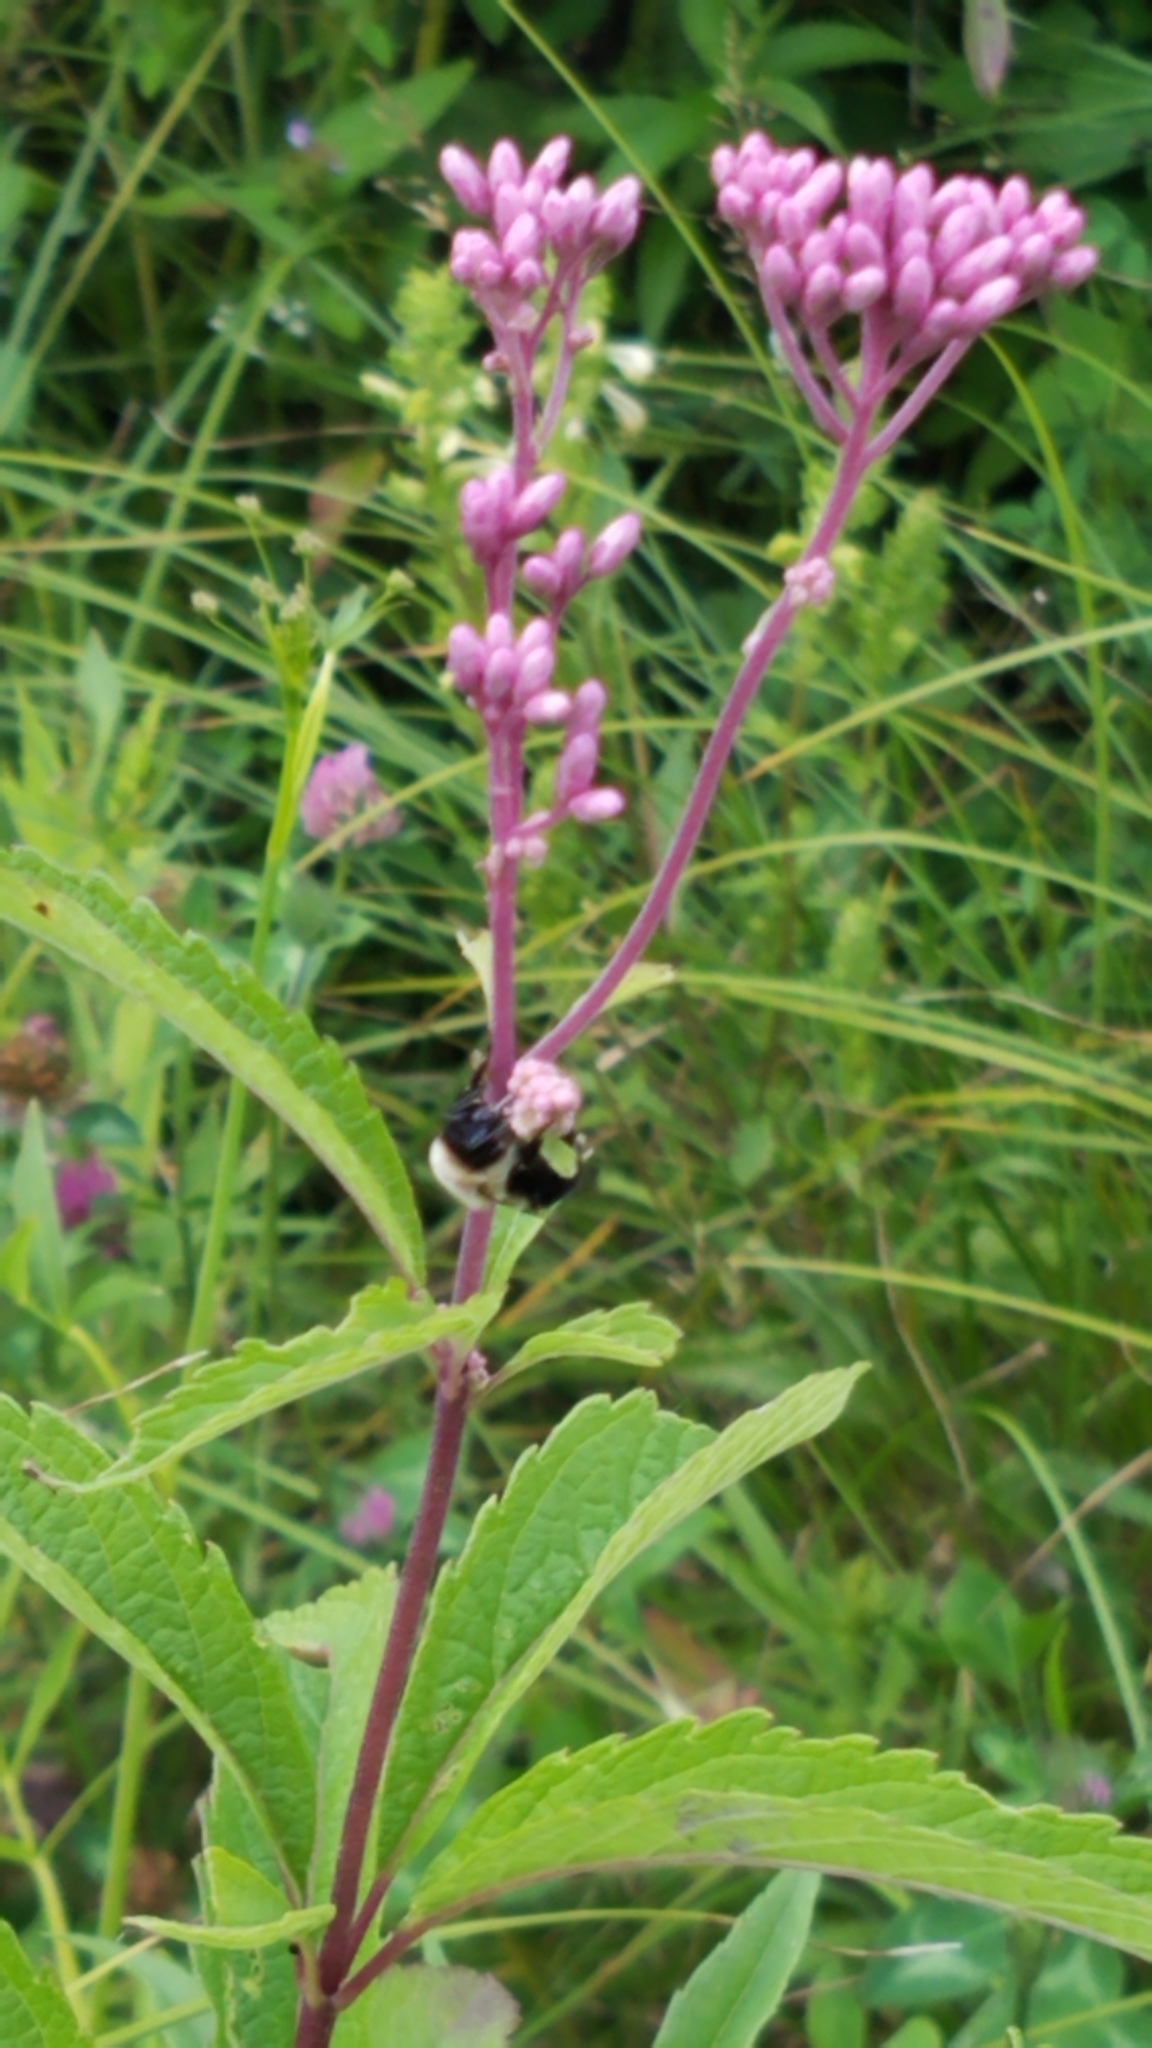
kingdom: Plantae
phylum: Tracheophyta
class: Magnoliopsida
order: Asterales
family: Asteraceae
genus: Eutrochium
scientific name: Eutrochium maculatum
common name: Spotted joe pye weed
